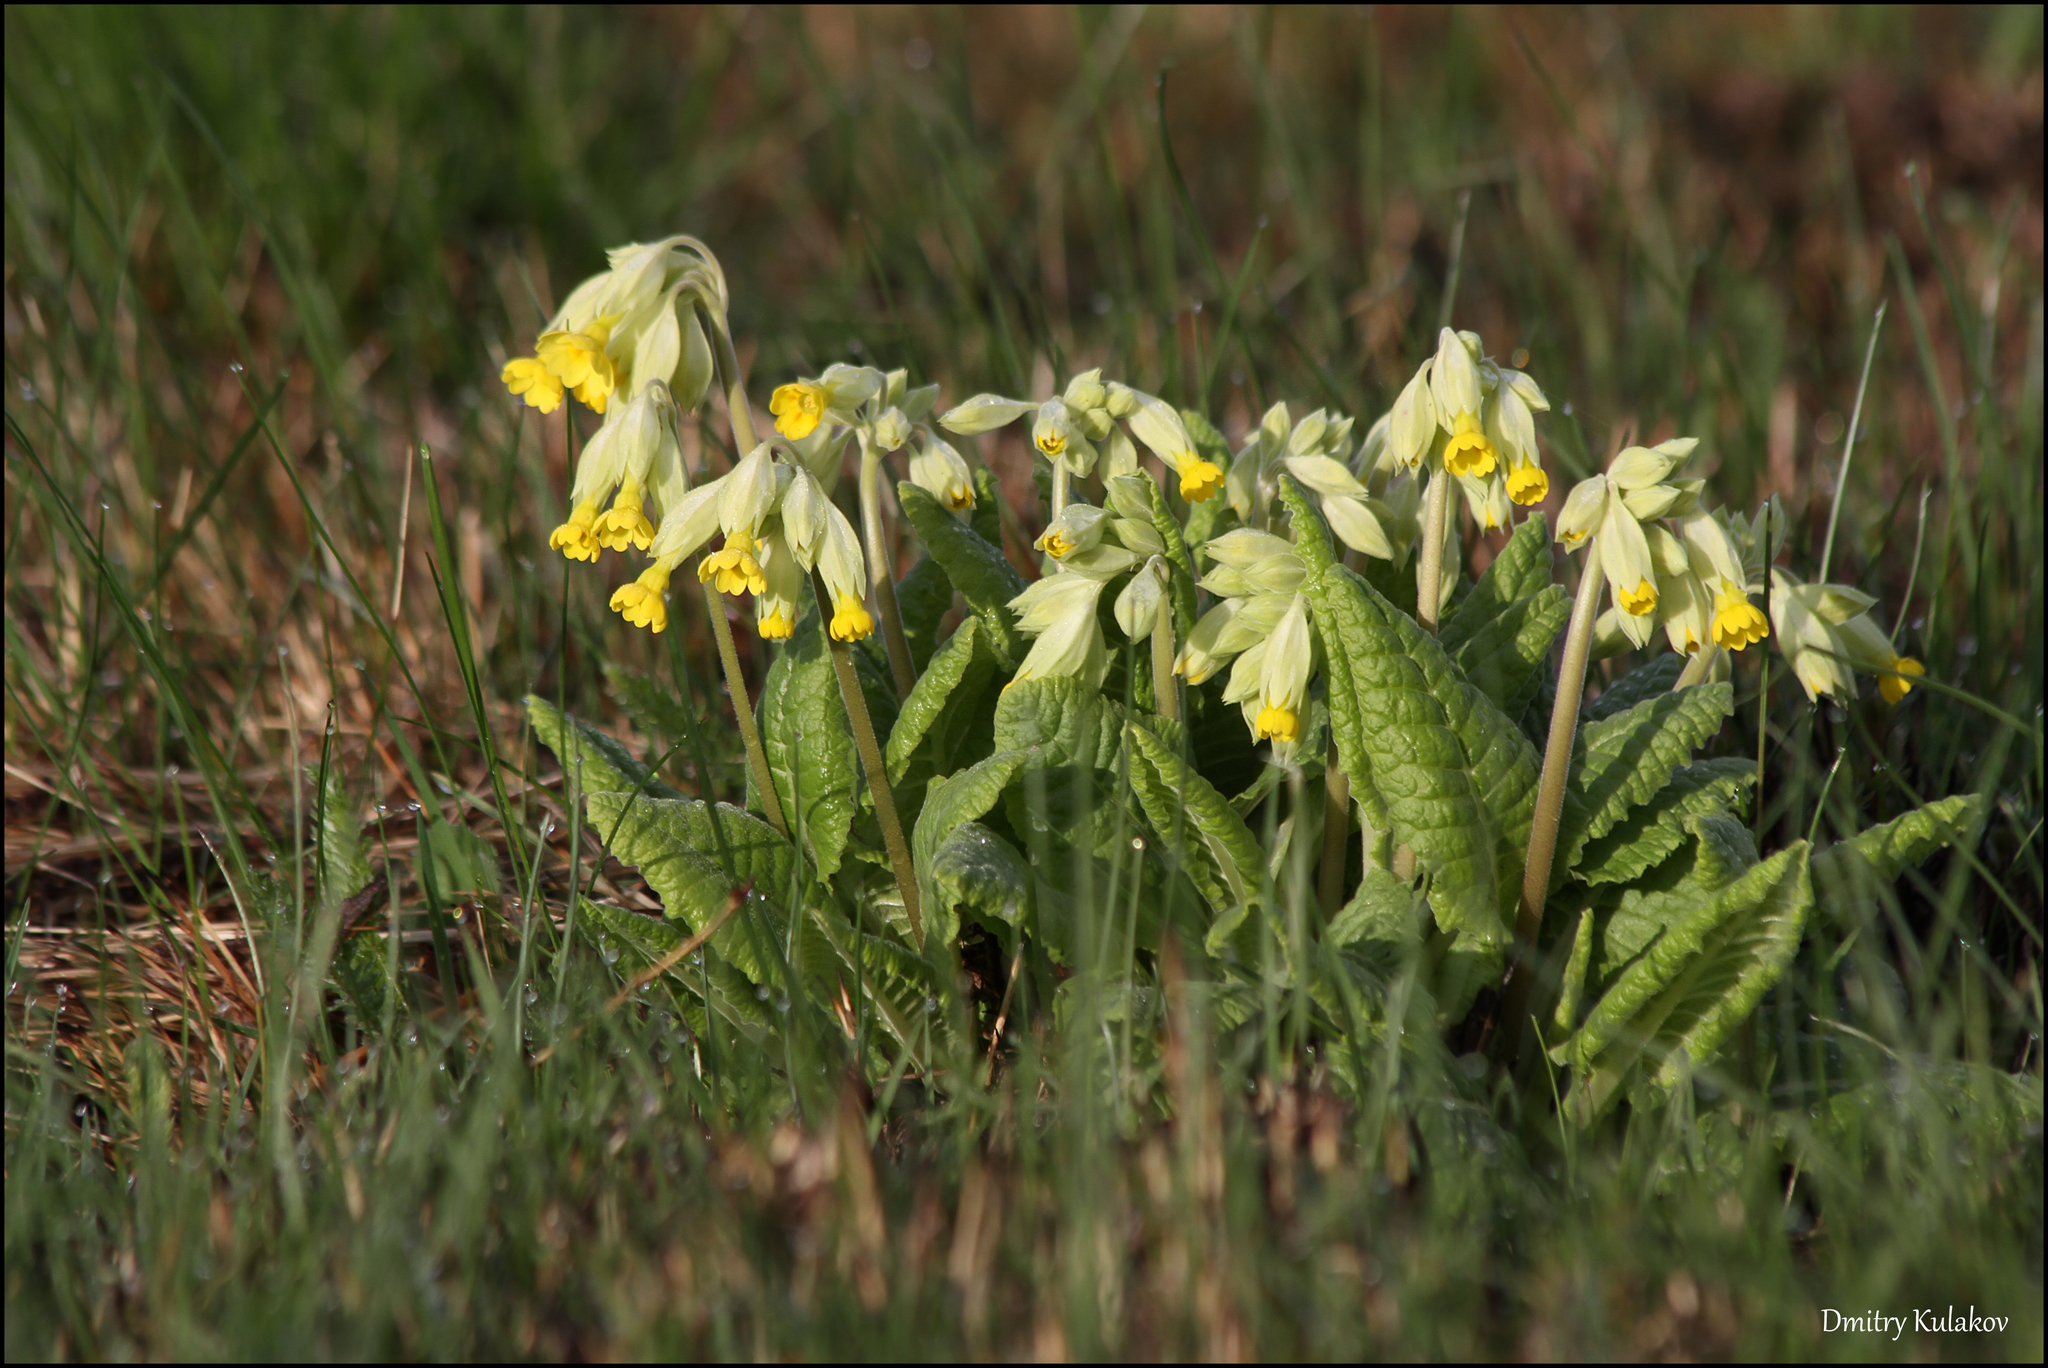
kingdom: Plantae
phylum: Tracheophyta
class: Magnoliopsida
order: Ericales
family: Primulaceae
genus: Primula
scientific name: Primula veris
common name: Cowslip
